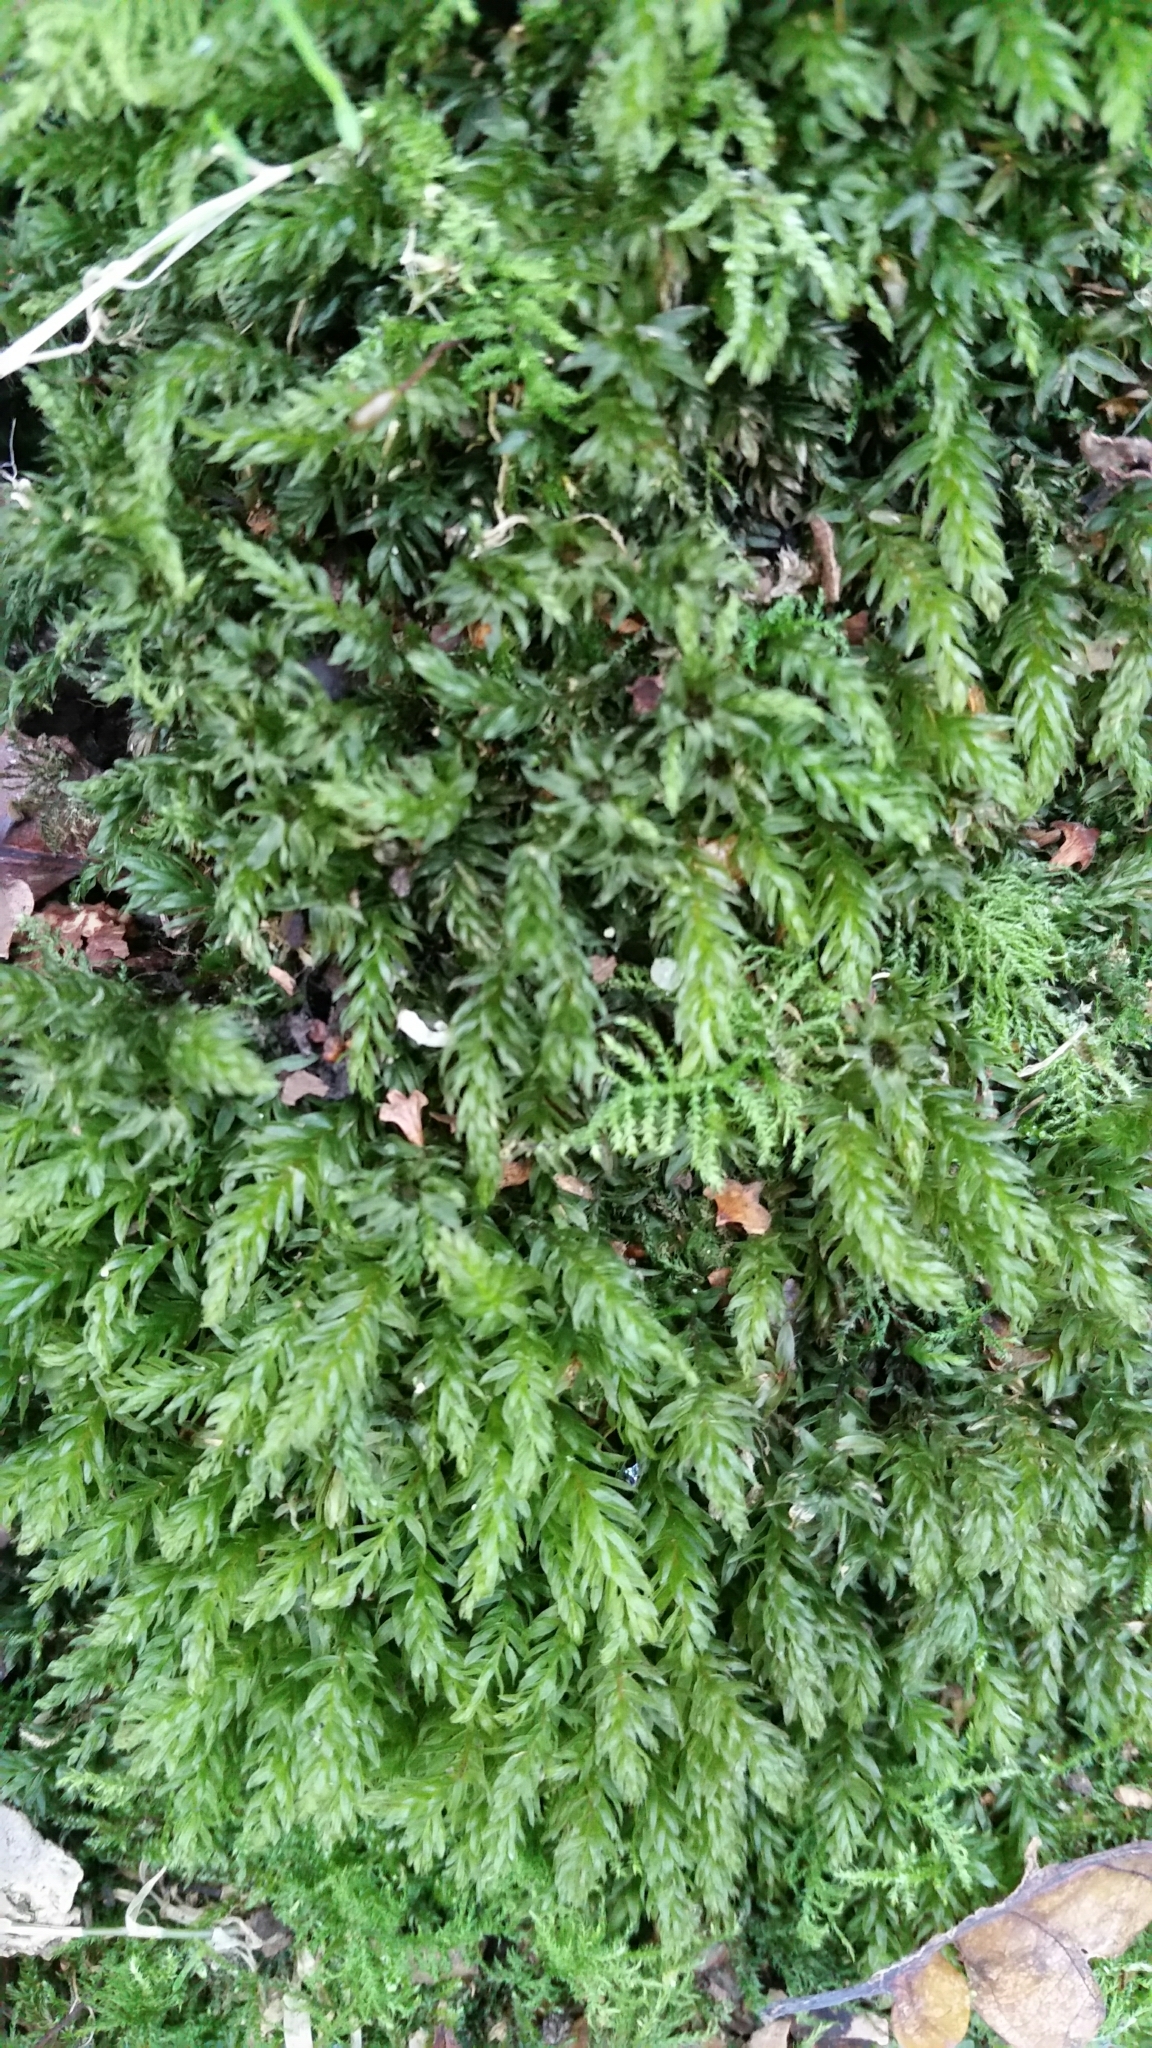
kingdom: Plantae
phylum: Bryophyta
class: Bryopsida
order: Bryales
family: Mniaceae
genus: Mnium
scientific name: Mnium hornum
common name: Swan's-neck leafy moss
